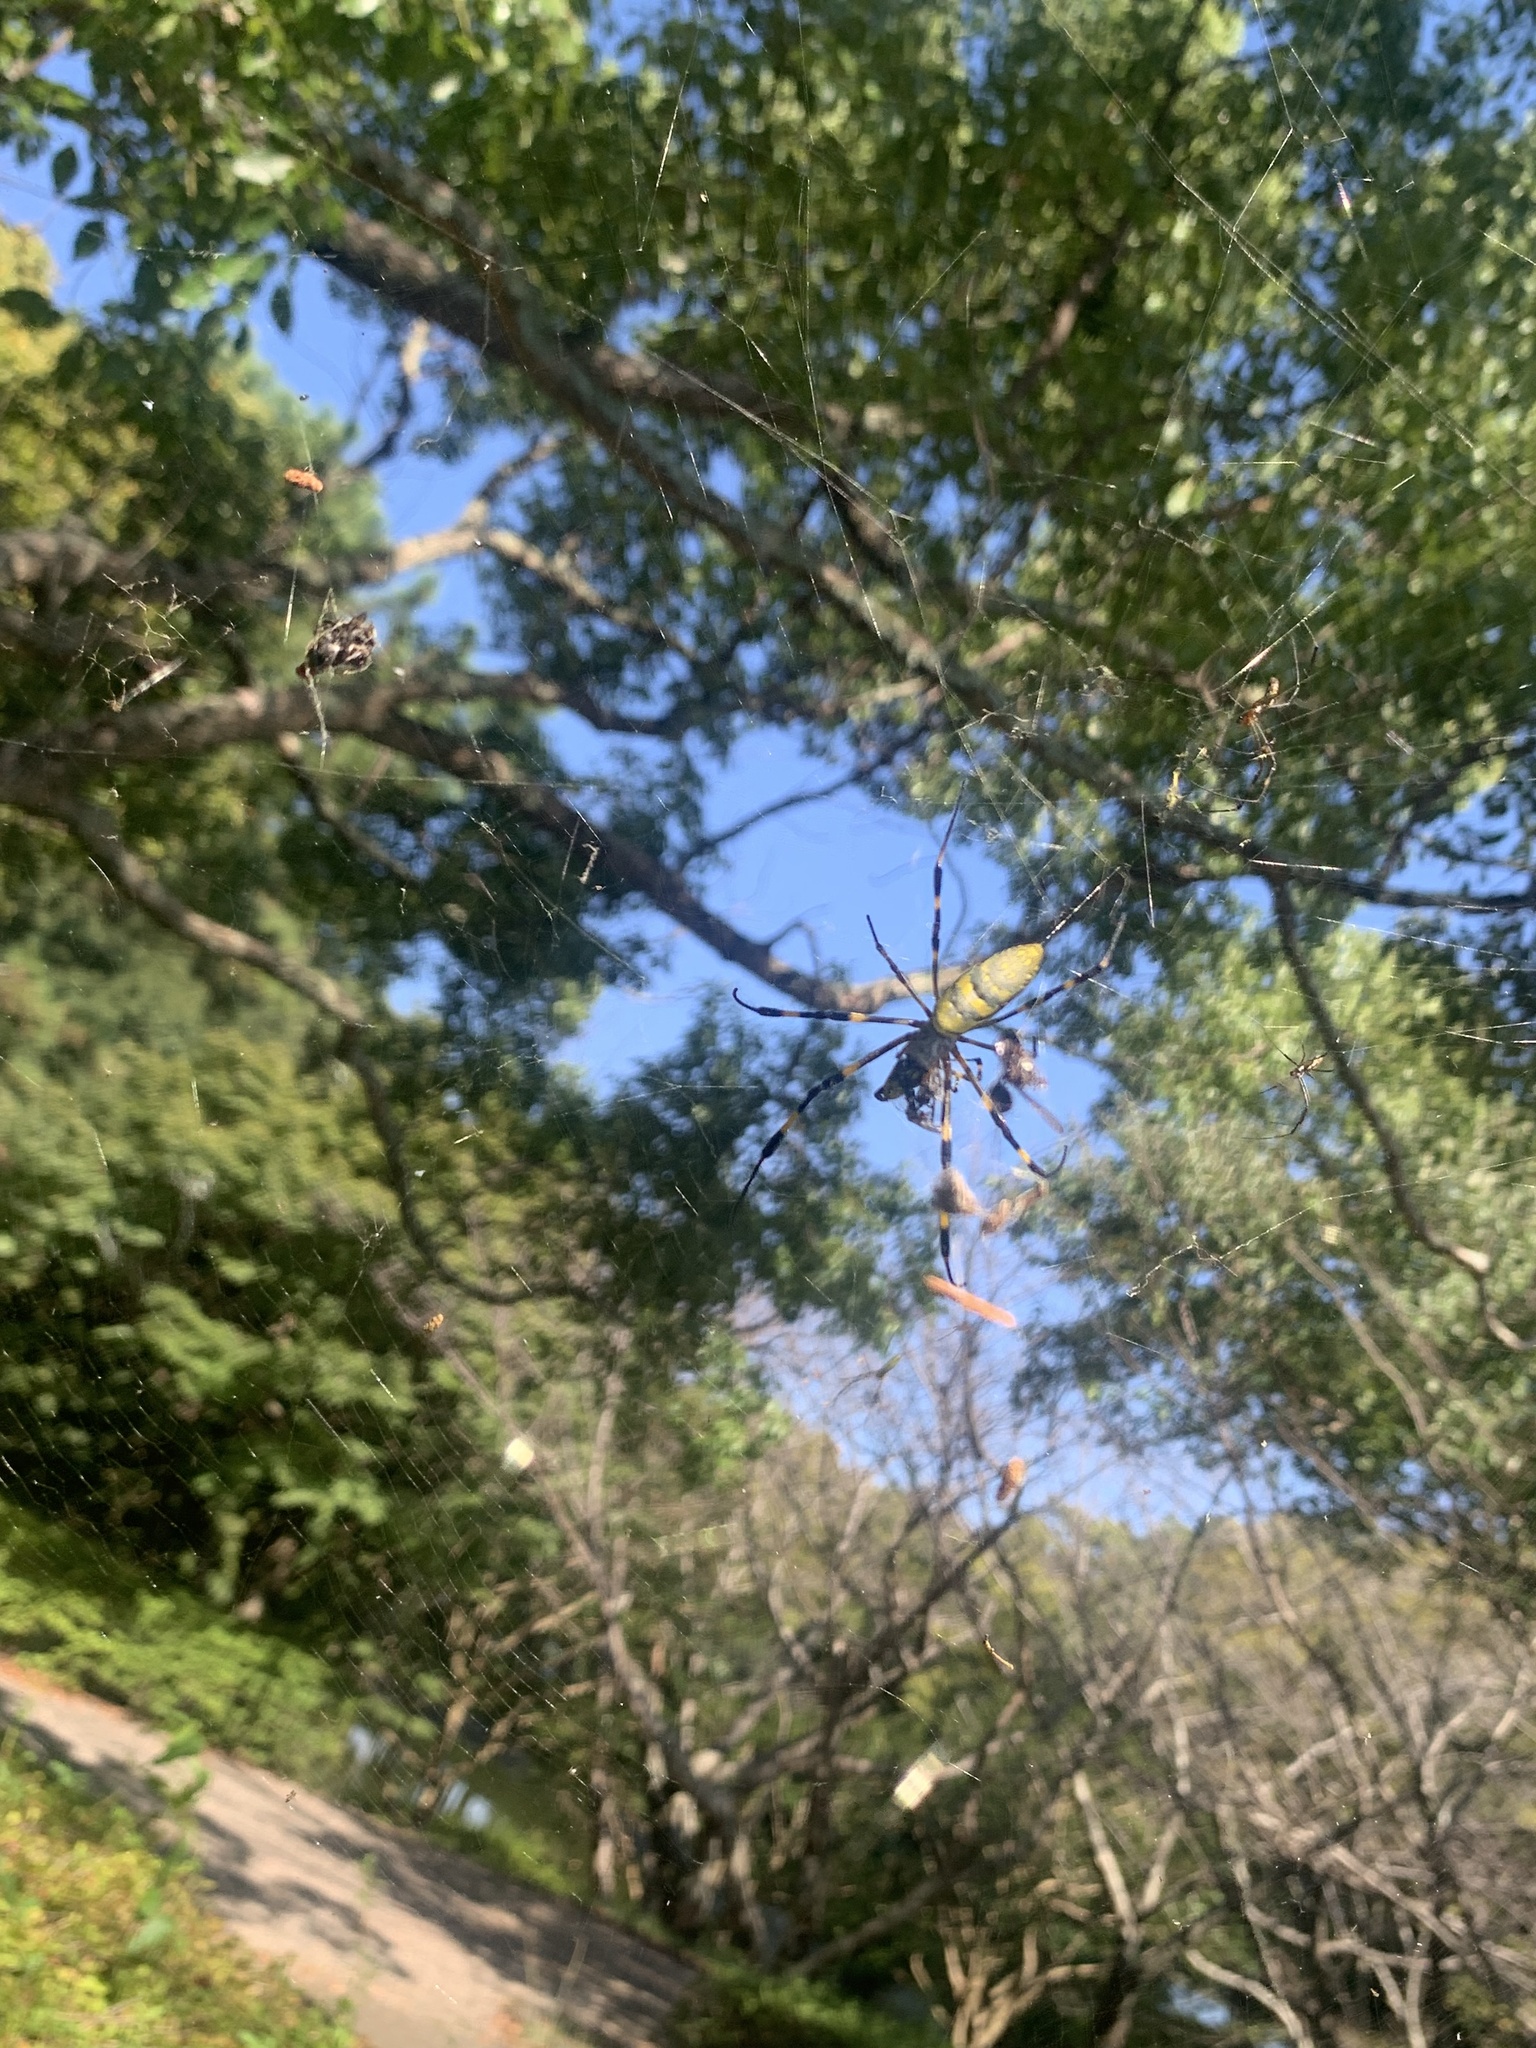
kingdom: Animalia
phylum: Arthropoda
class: Arachnida
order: Araneae
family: Araneidae
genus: Trichonephila
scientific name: Trichonephila clavata
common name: Jorō spider
